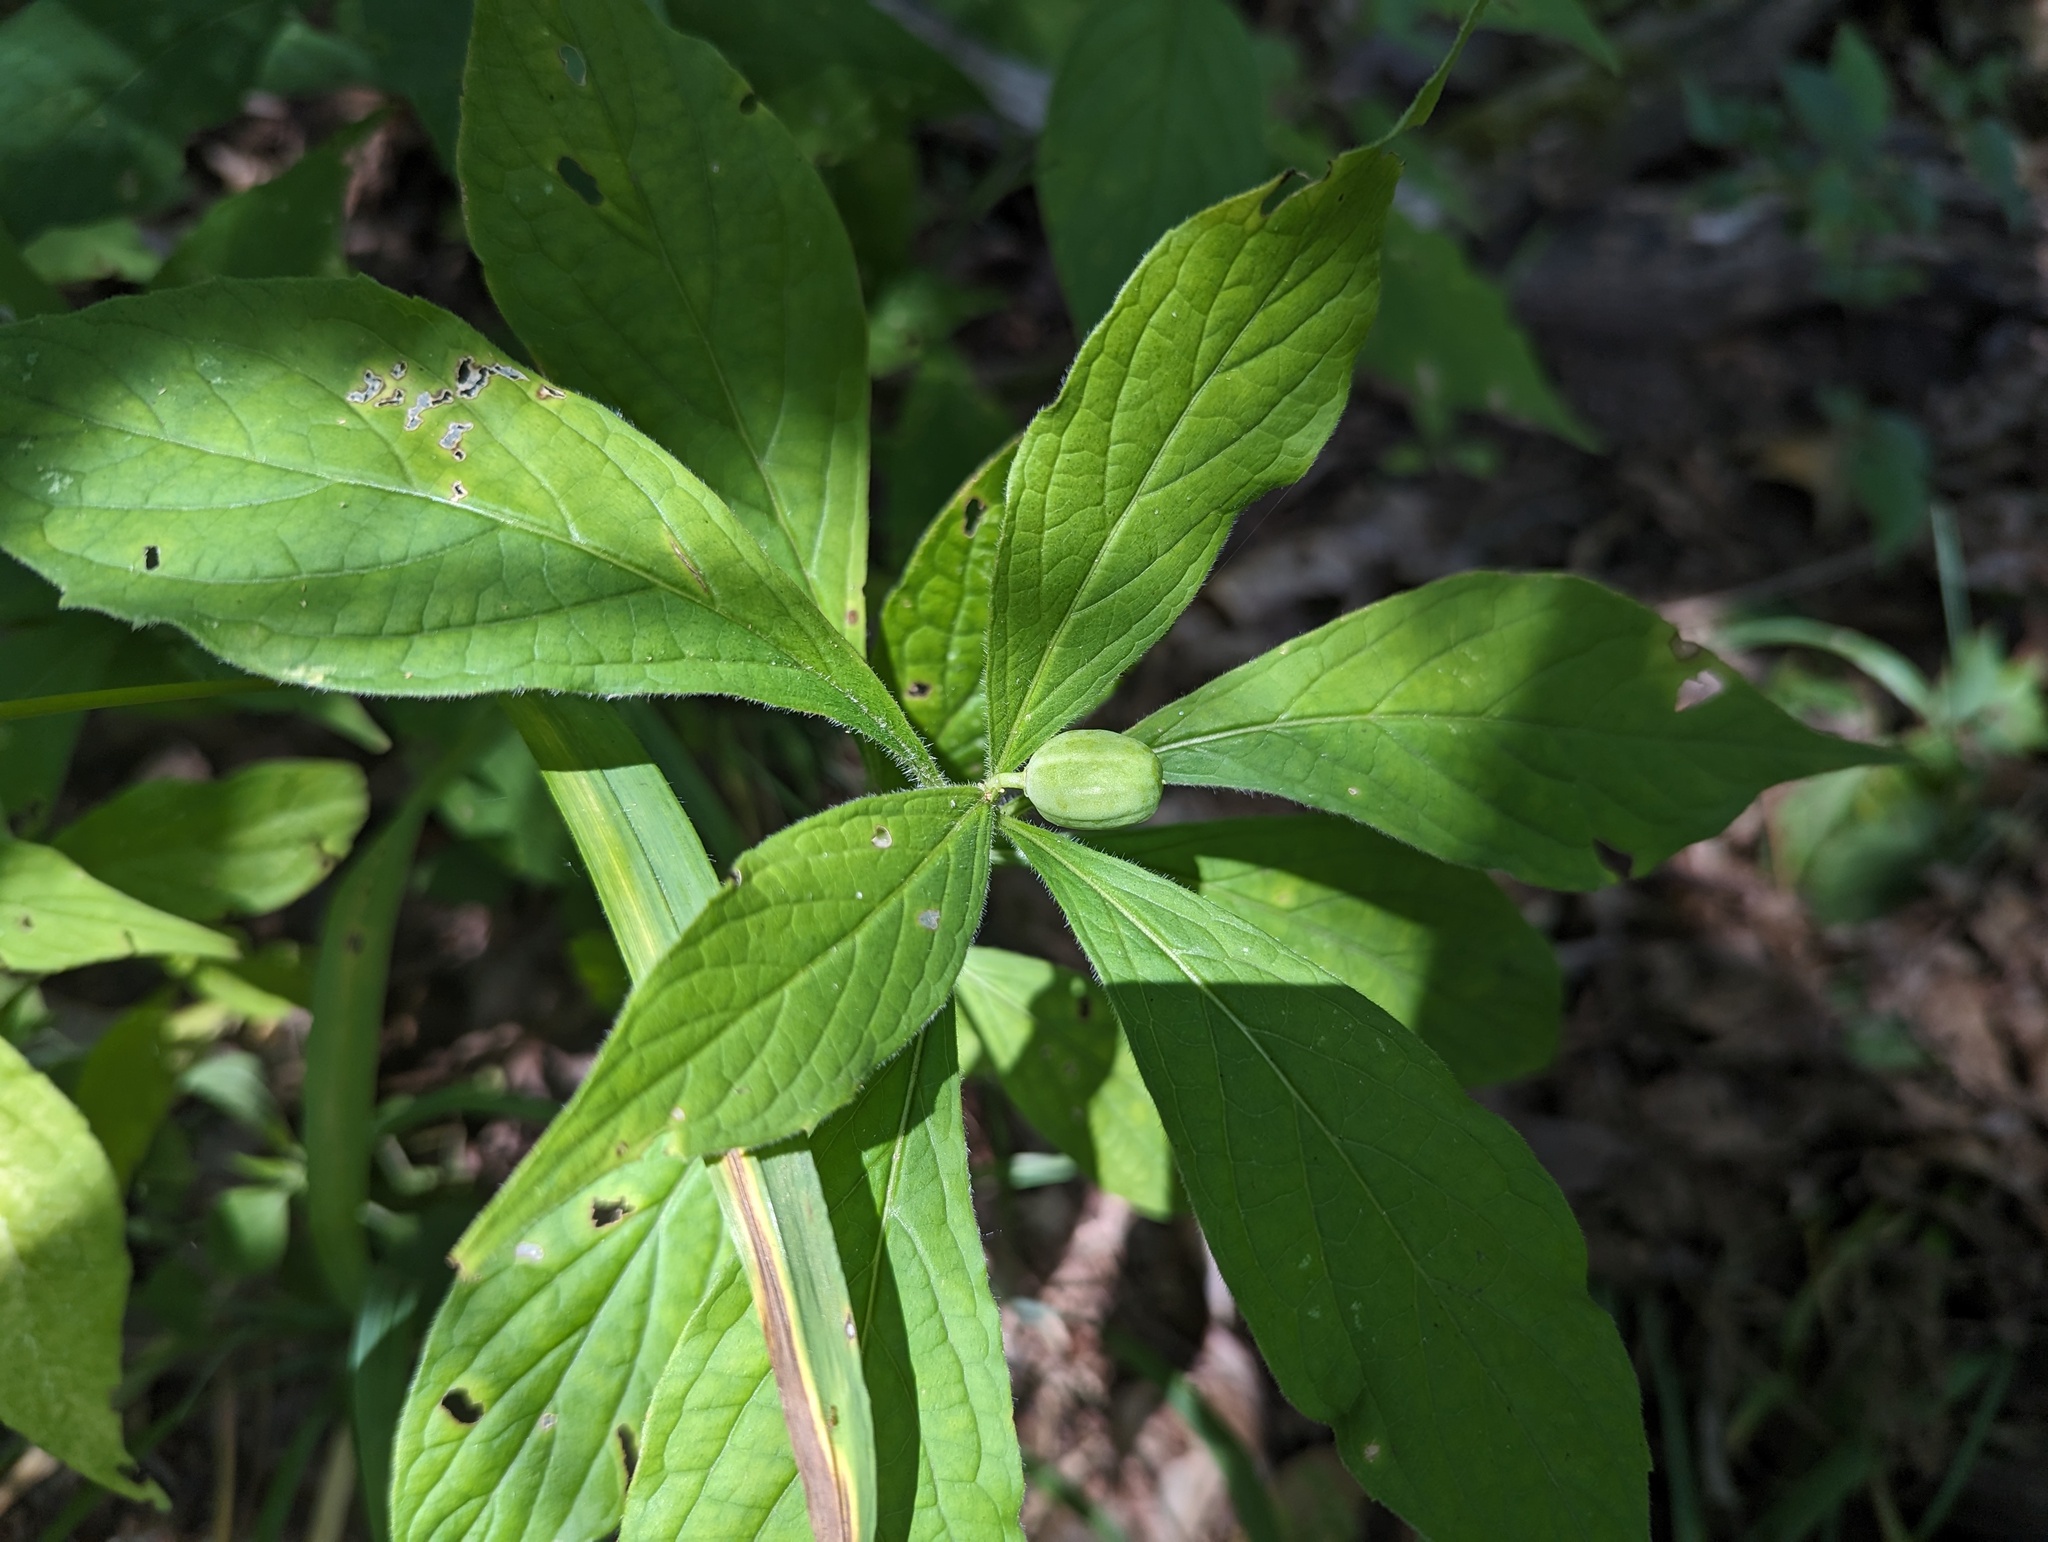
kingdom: Plantae
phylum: Tracheophyta
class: Magnoliopsida
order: Malpighiales
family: Violaceae
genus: Cubelium
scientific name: Cubelium concolor
